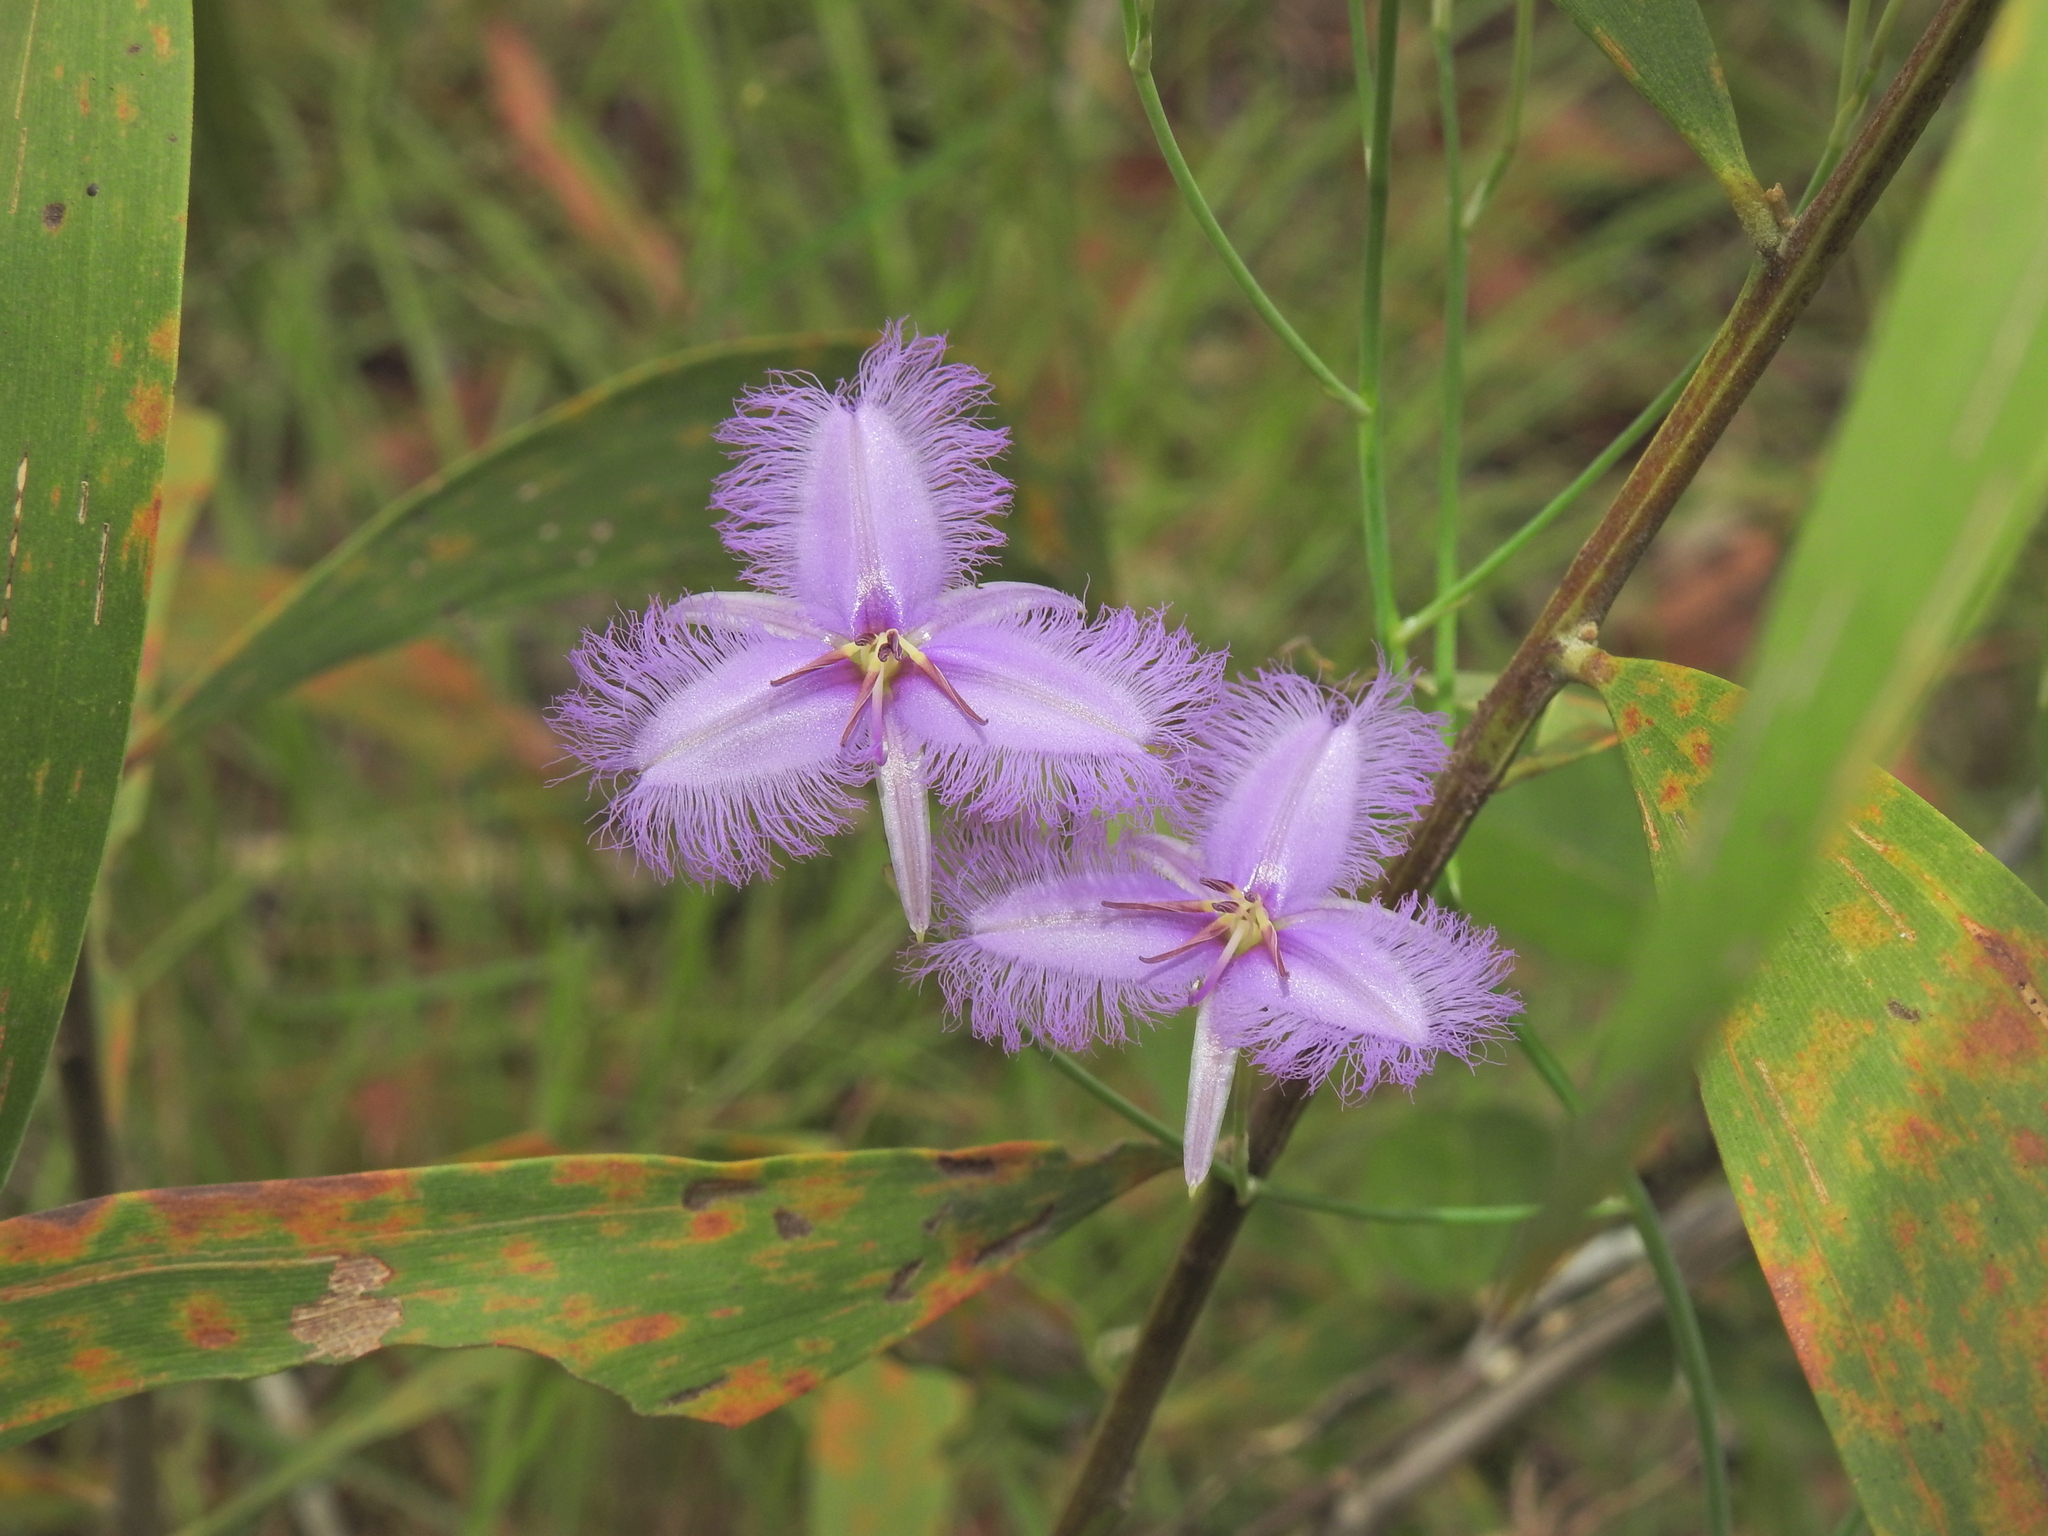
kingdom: Plantae
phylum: Tracheophyta
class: Liliopsida
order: Asparagales
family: Asparagaceae
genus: Thysanotus
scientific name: Thysanotus tuberosus
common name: Common fringed-lily
